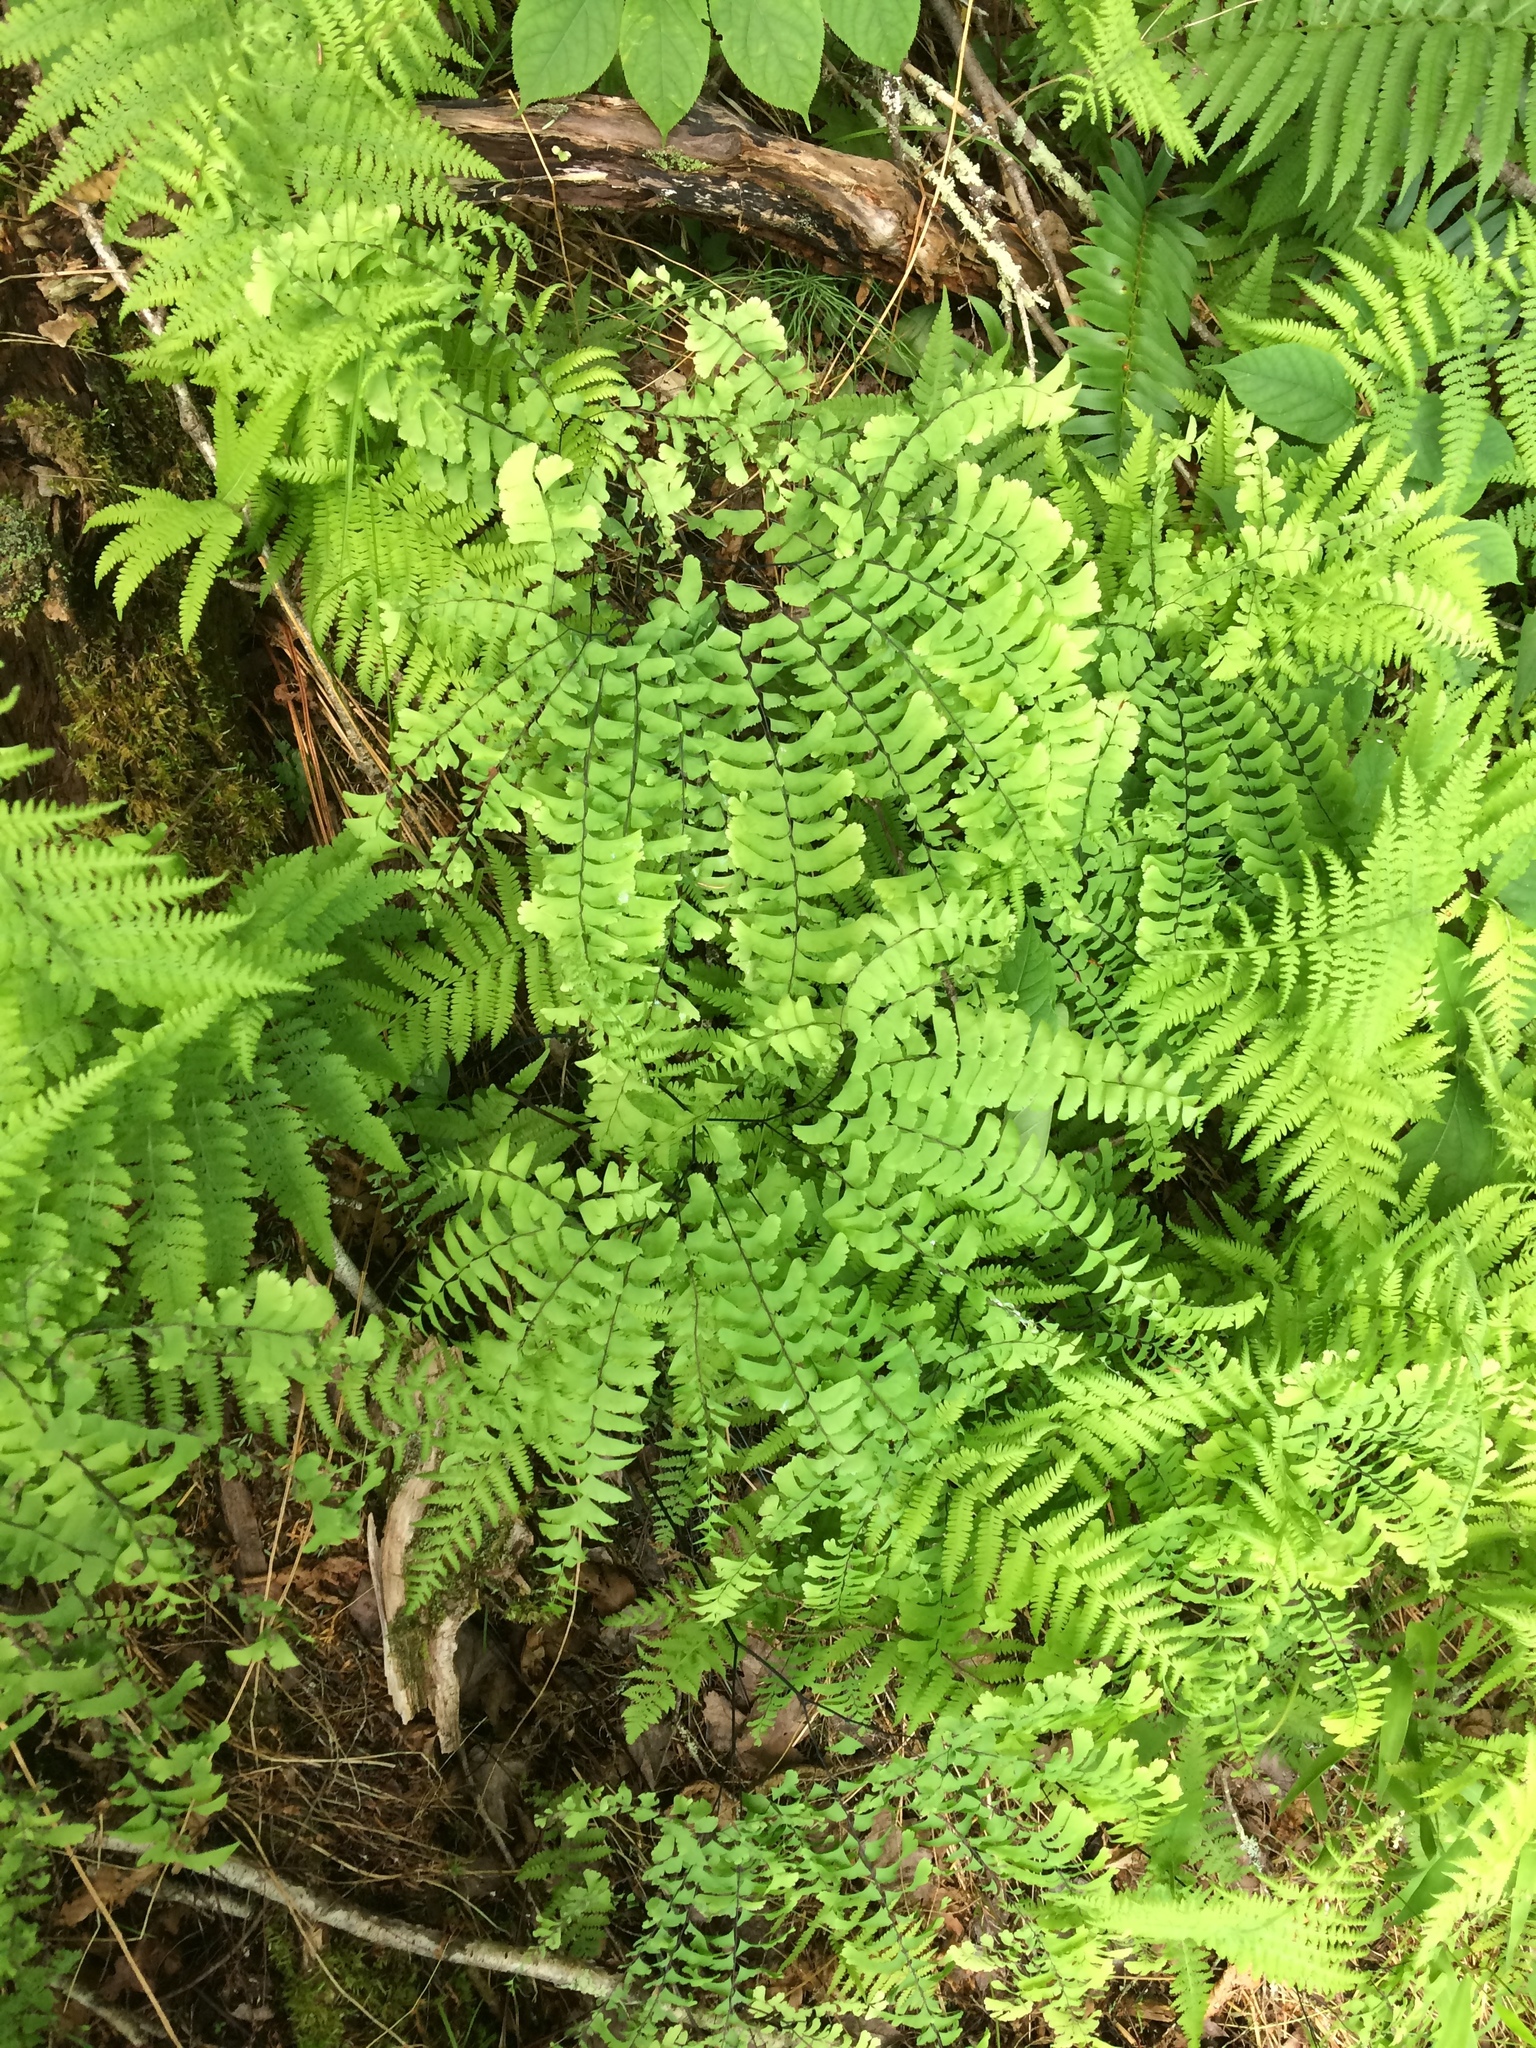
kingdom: Plantae
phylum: Tracheophyta
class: Polypodiopsida
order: Polypodiales
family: Pteridaceae
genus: Adiantum
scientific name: Adiantum pedatum
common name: Five-finger fern
